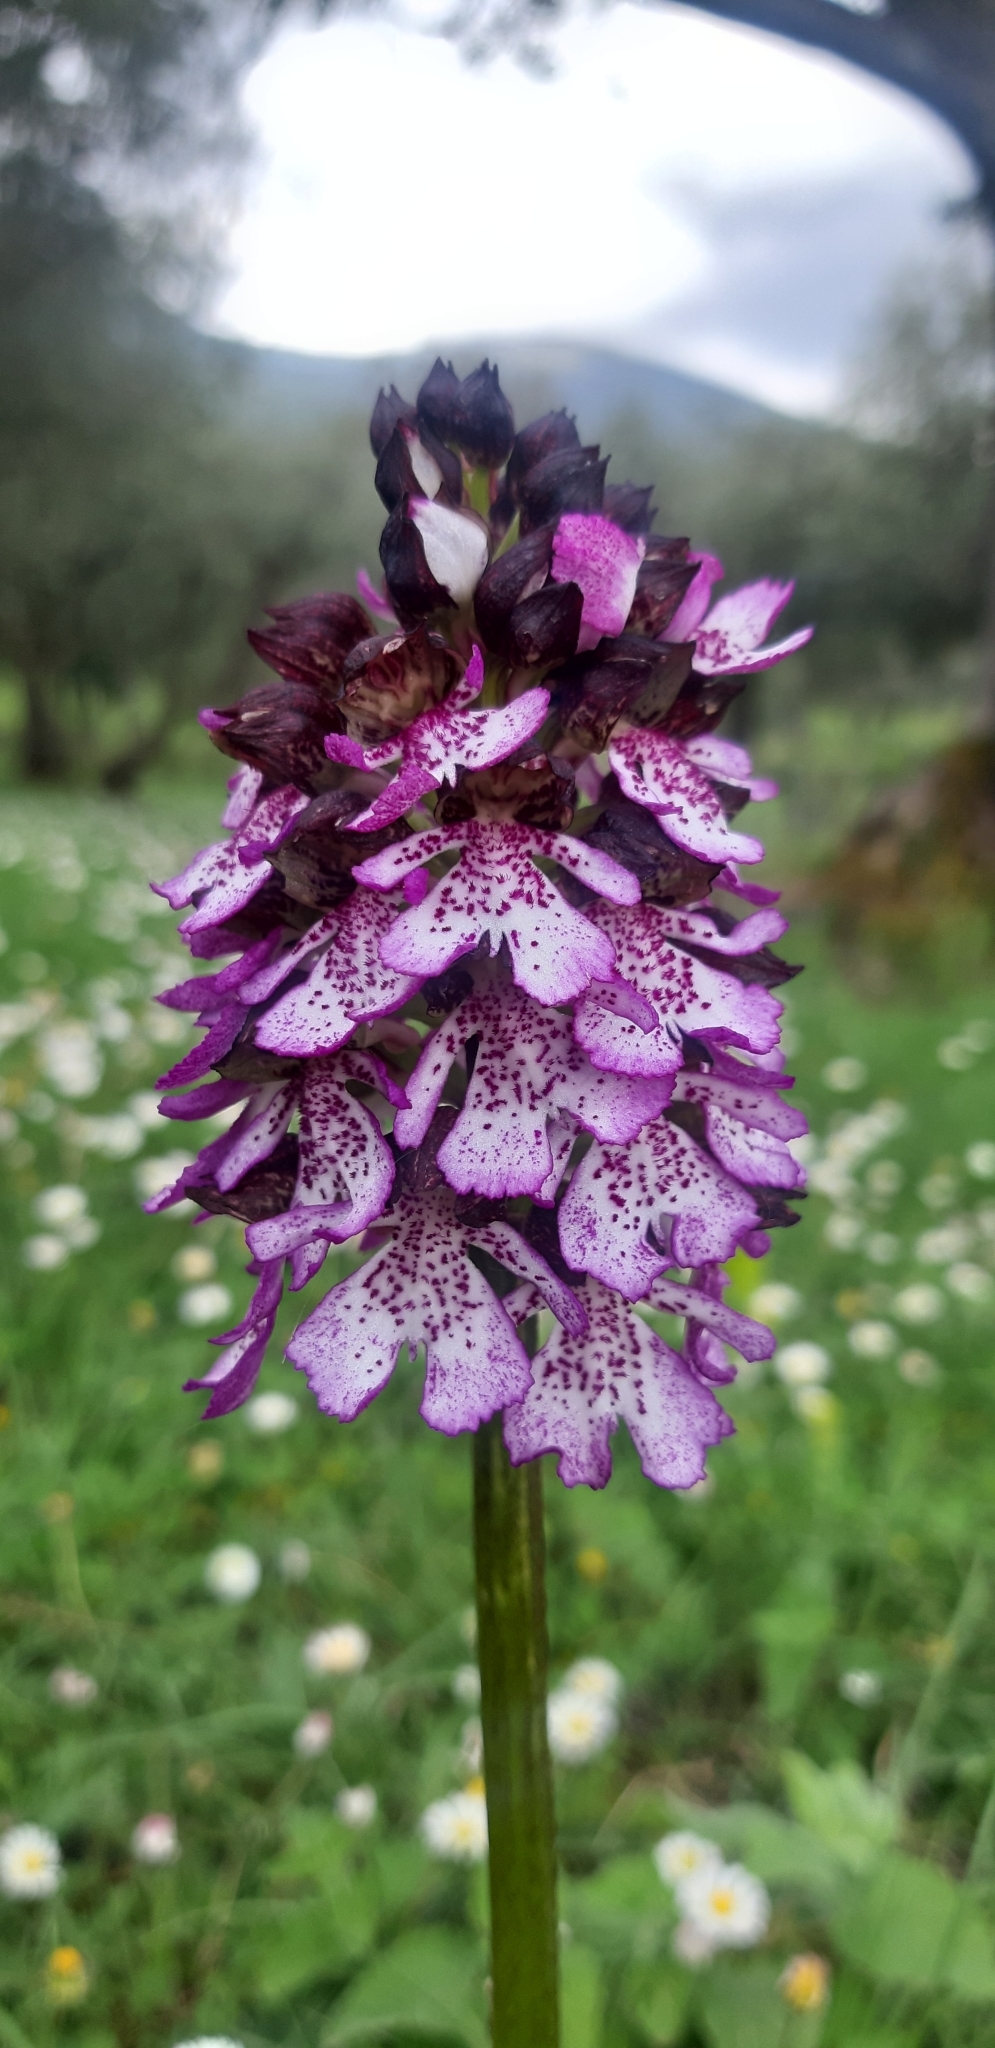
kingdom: Plantae
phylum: Tracheophyta
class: Liliopsida
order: Asparagales
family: Orchidaceae
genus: Orchis
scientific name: Orchis purpurea
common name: Lady orchid
